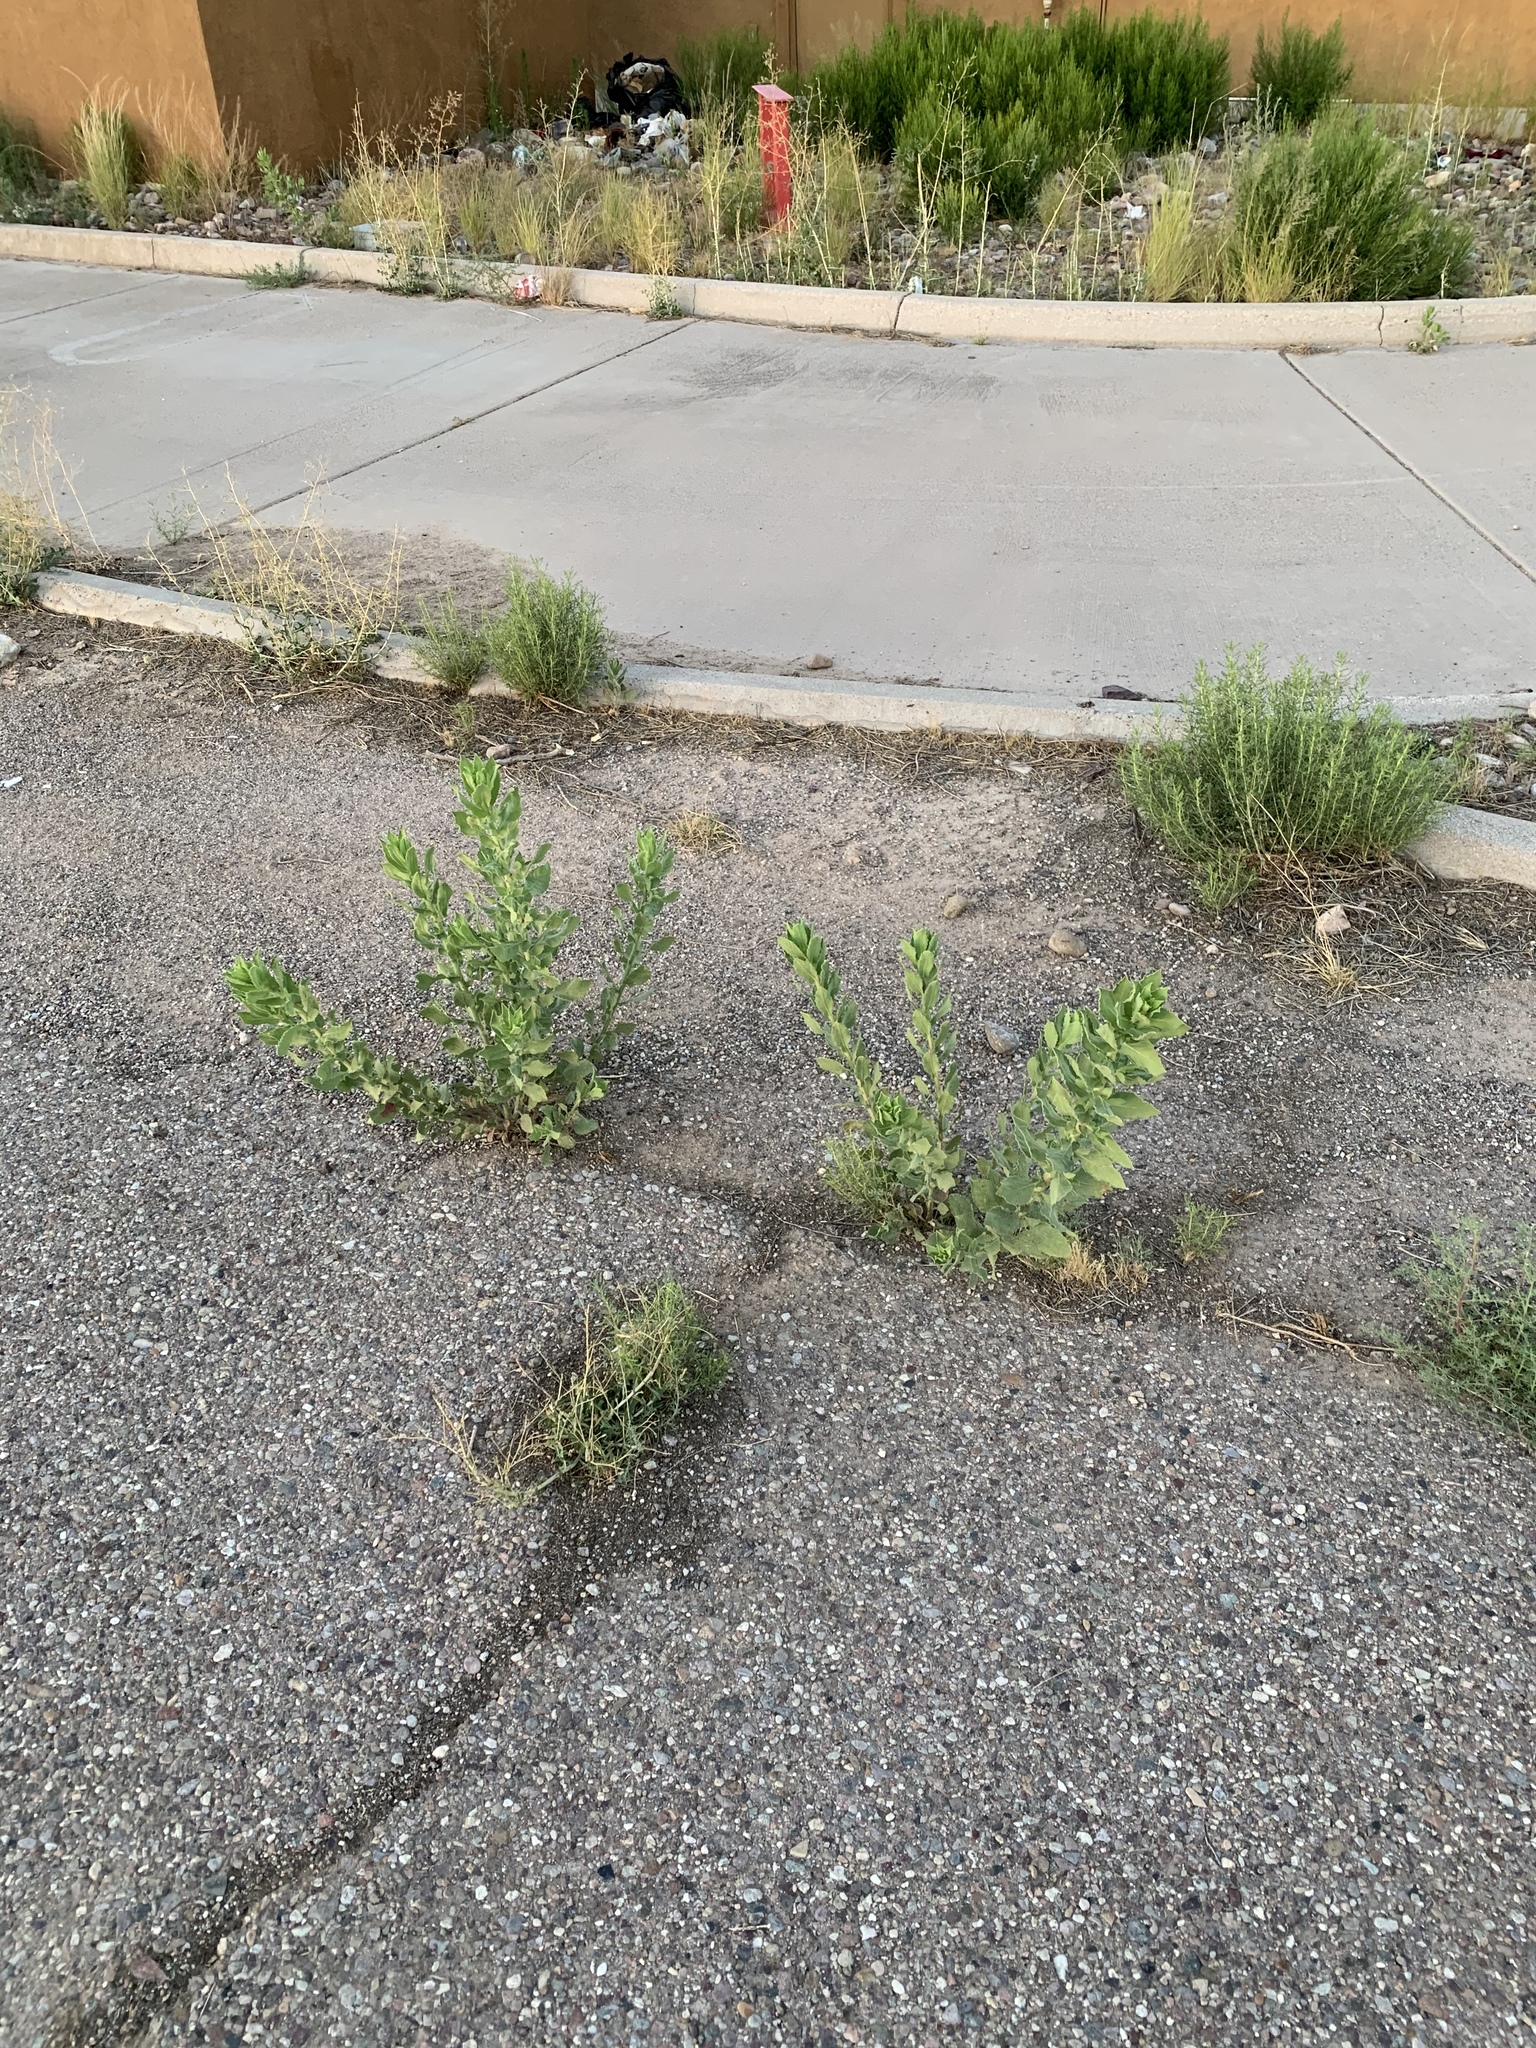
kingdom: Plantae
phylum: Tracheophyta
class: Magnoliopsida
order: Asterales
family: Asteraceae
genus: Heterotheca
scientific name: Heterotheca subaxillaris
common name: Camphorweed
